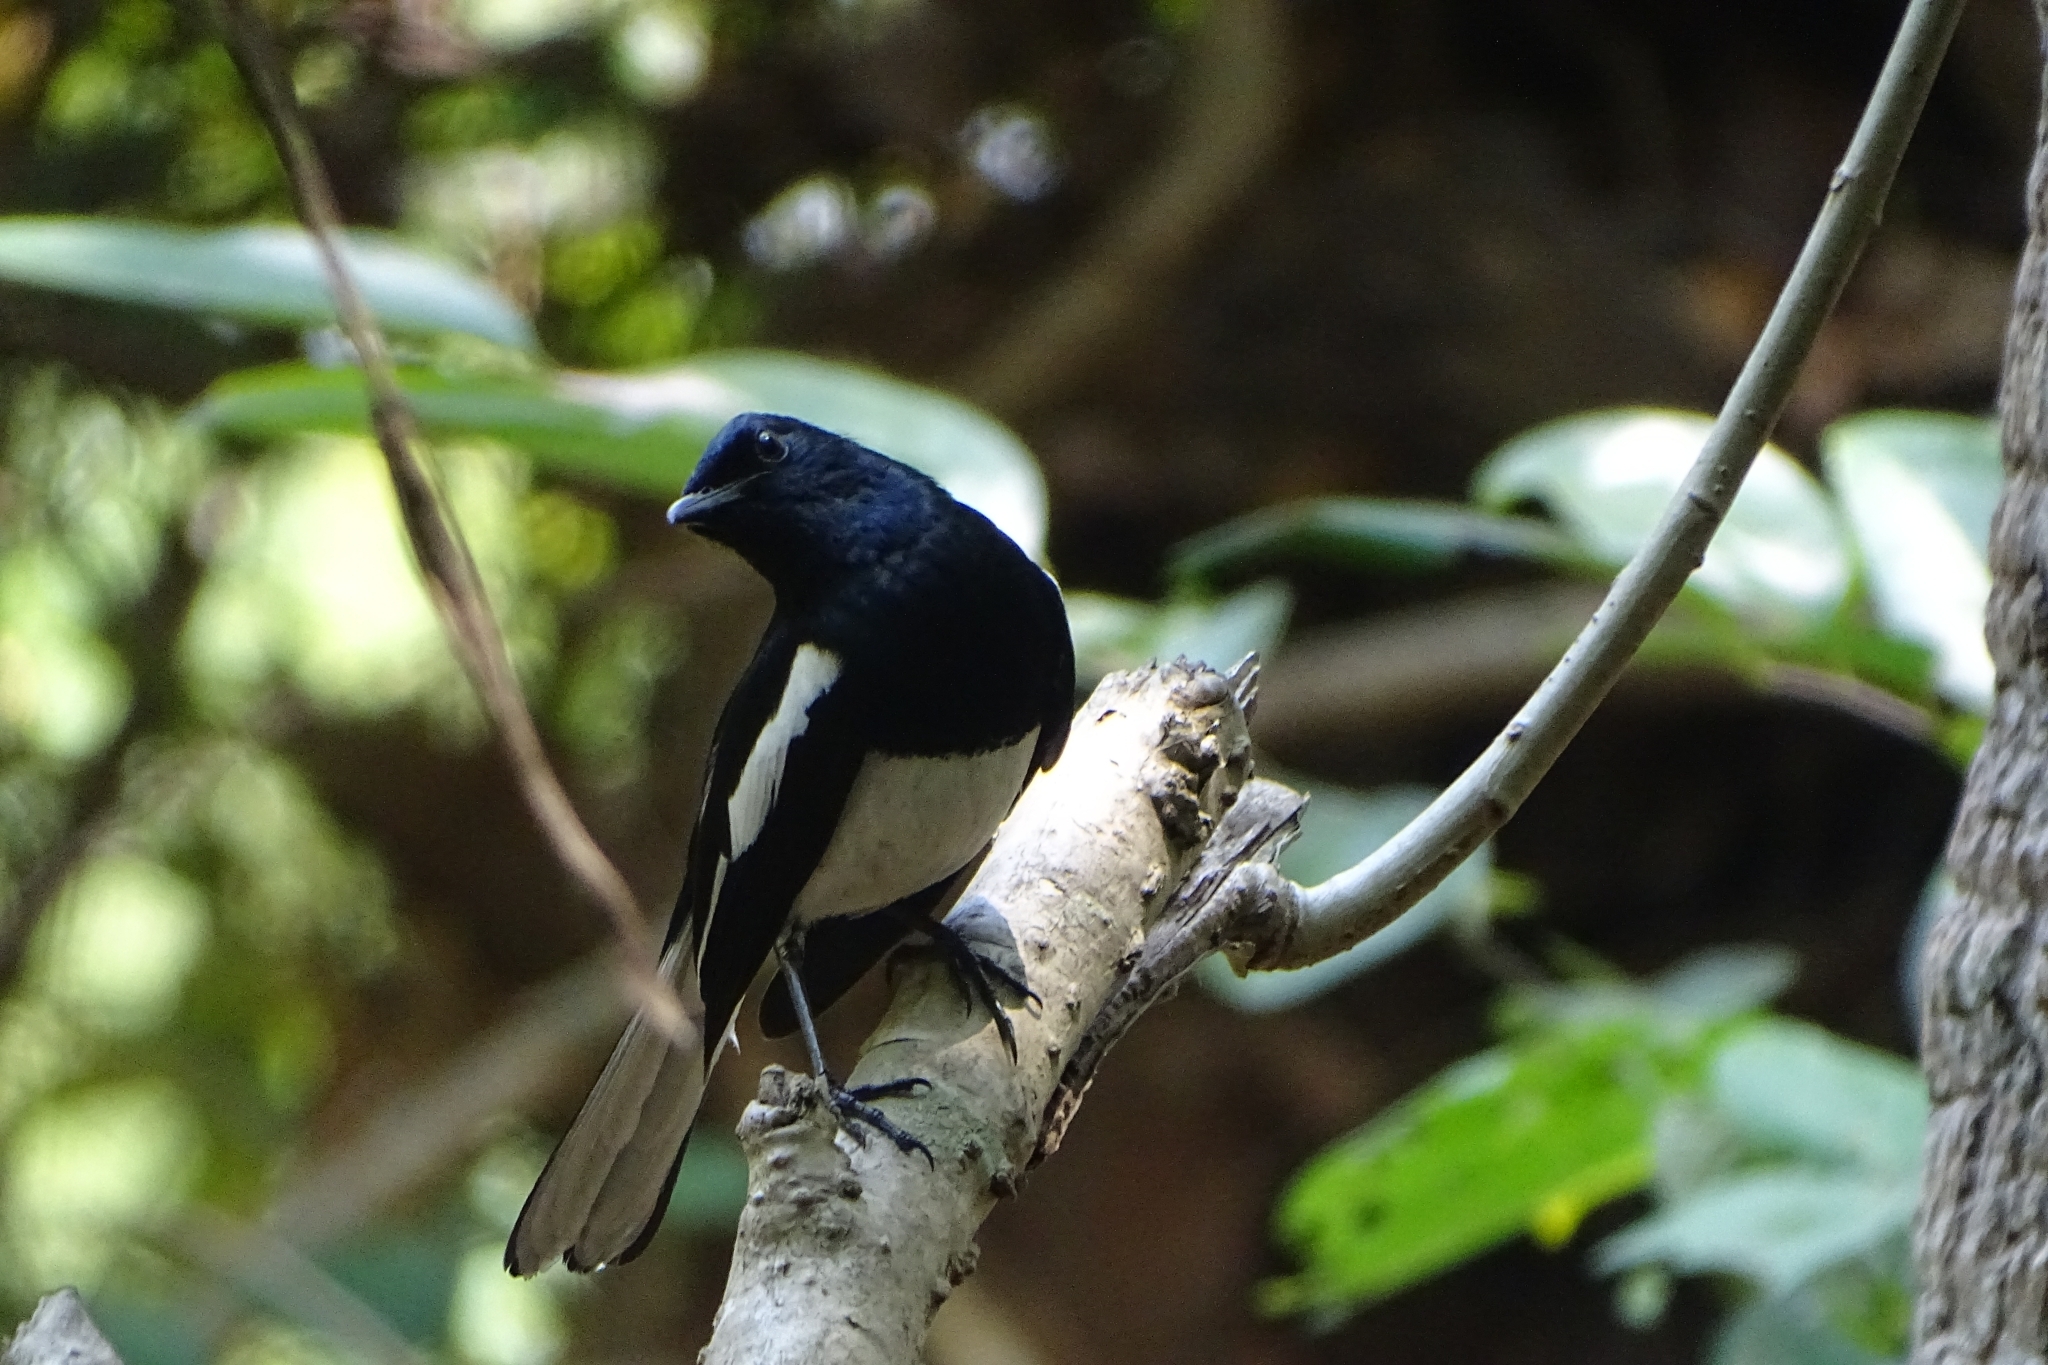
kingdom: Animalia
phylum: Chordata
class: Aves
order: Passeriformes
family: Muscicapidae
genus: Copsychus
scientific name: Copsychus saularis
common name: Oriental magpie-robin
